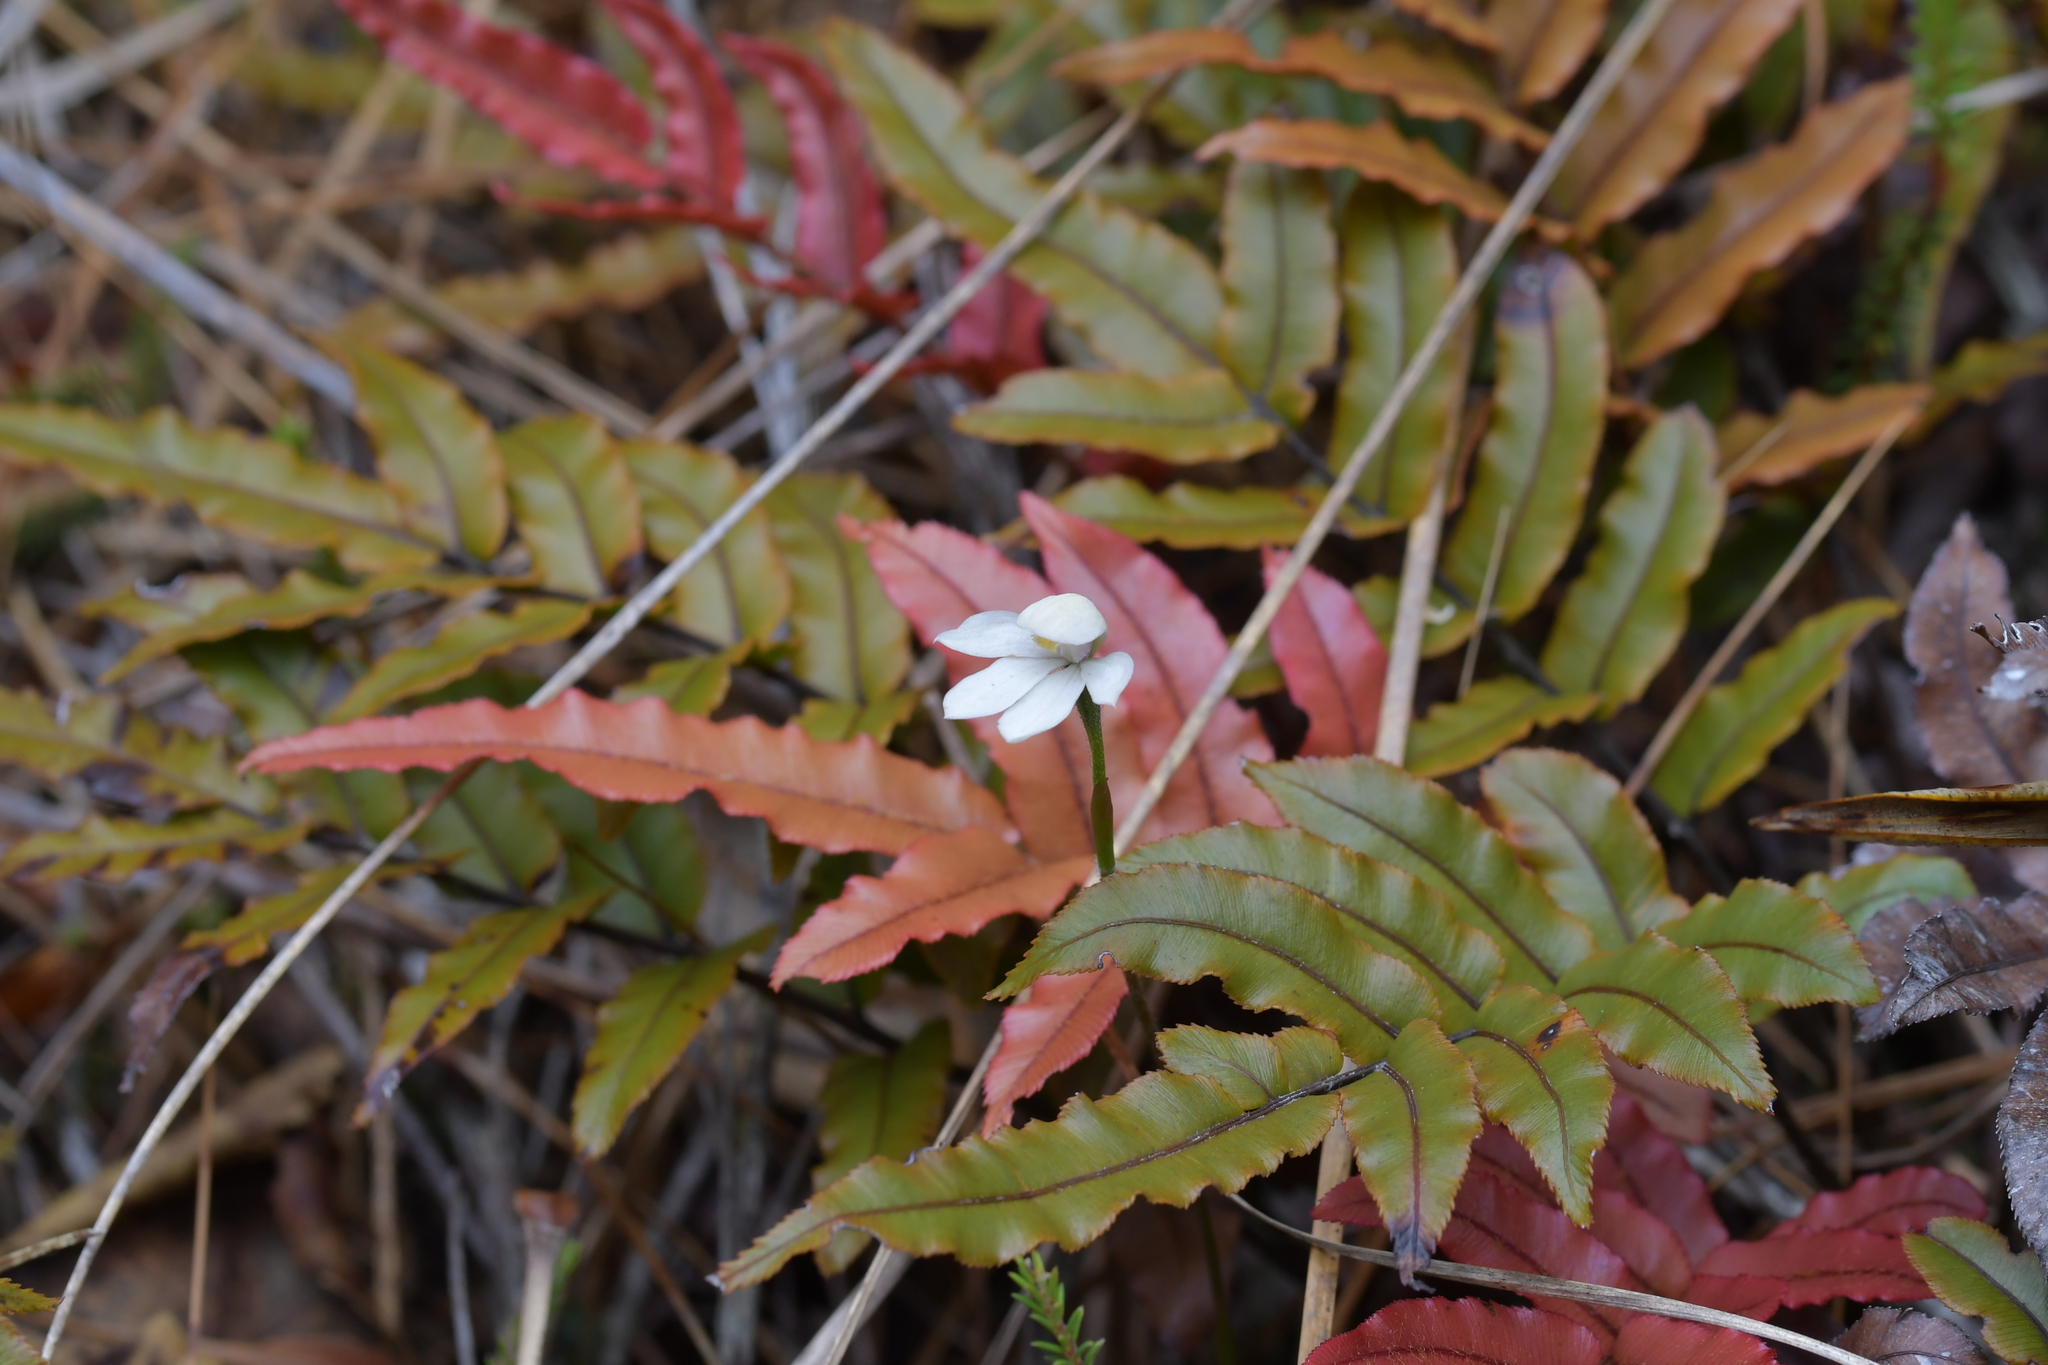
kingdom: Plantae
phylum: Tracheophyta
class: Liliopsida
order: Asparagales
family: Orchidaceae
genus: Caladenia
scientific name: Caladenia lyallii
